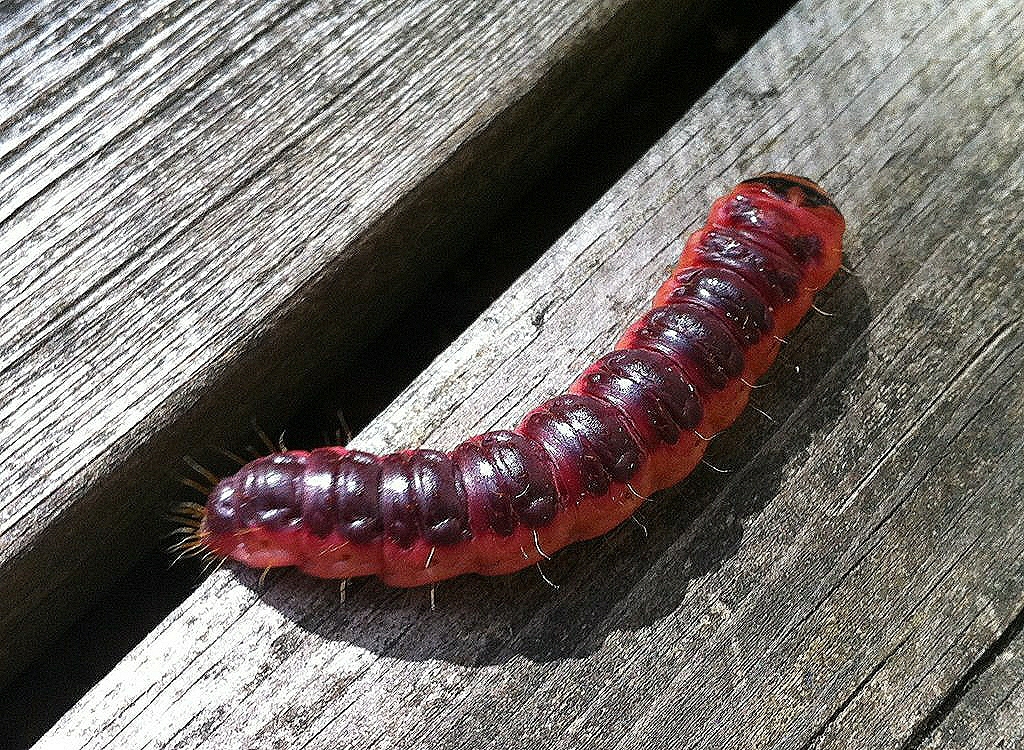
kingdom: Animalia
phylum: Arthropoda
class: Insecta
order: Lepidoptera
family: Cossidae
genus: Cossus
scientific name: Cossus cossus
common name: Goat moth
